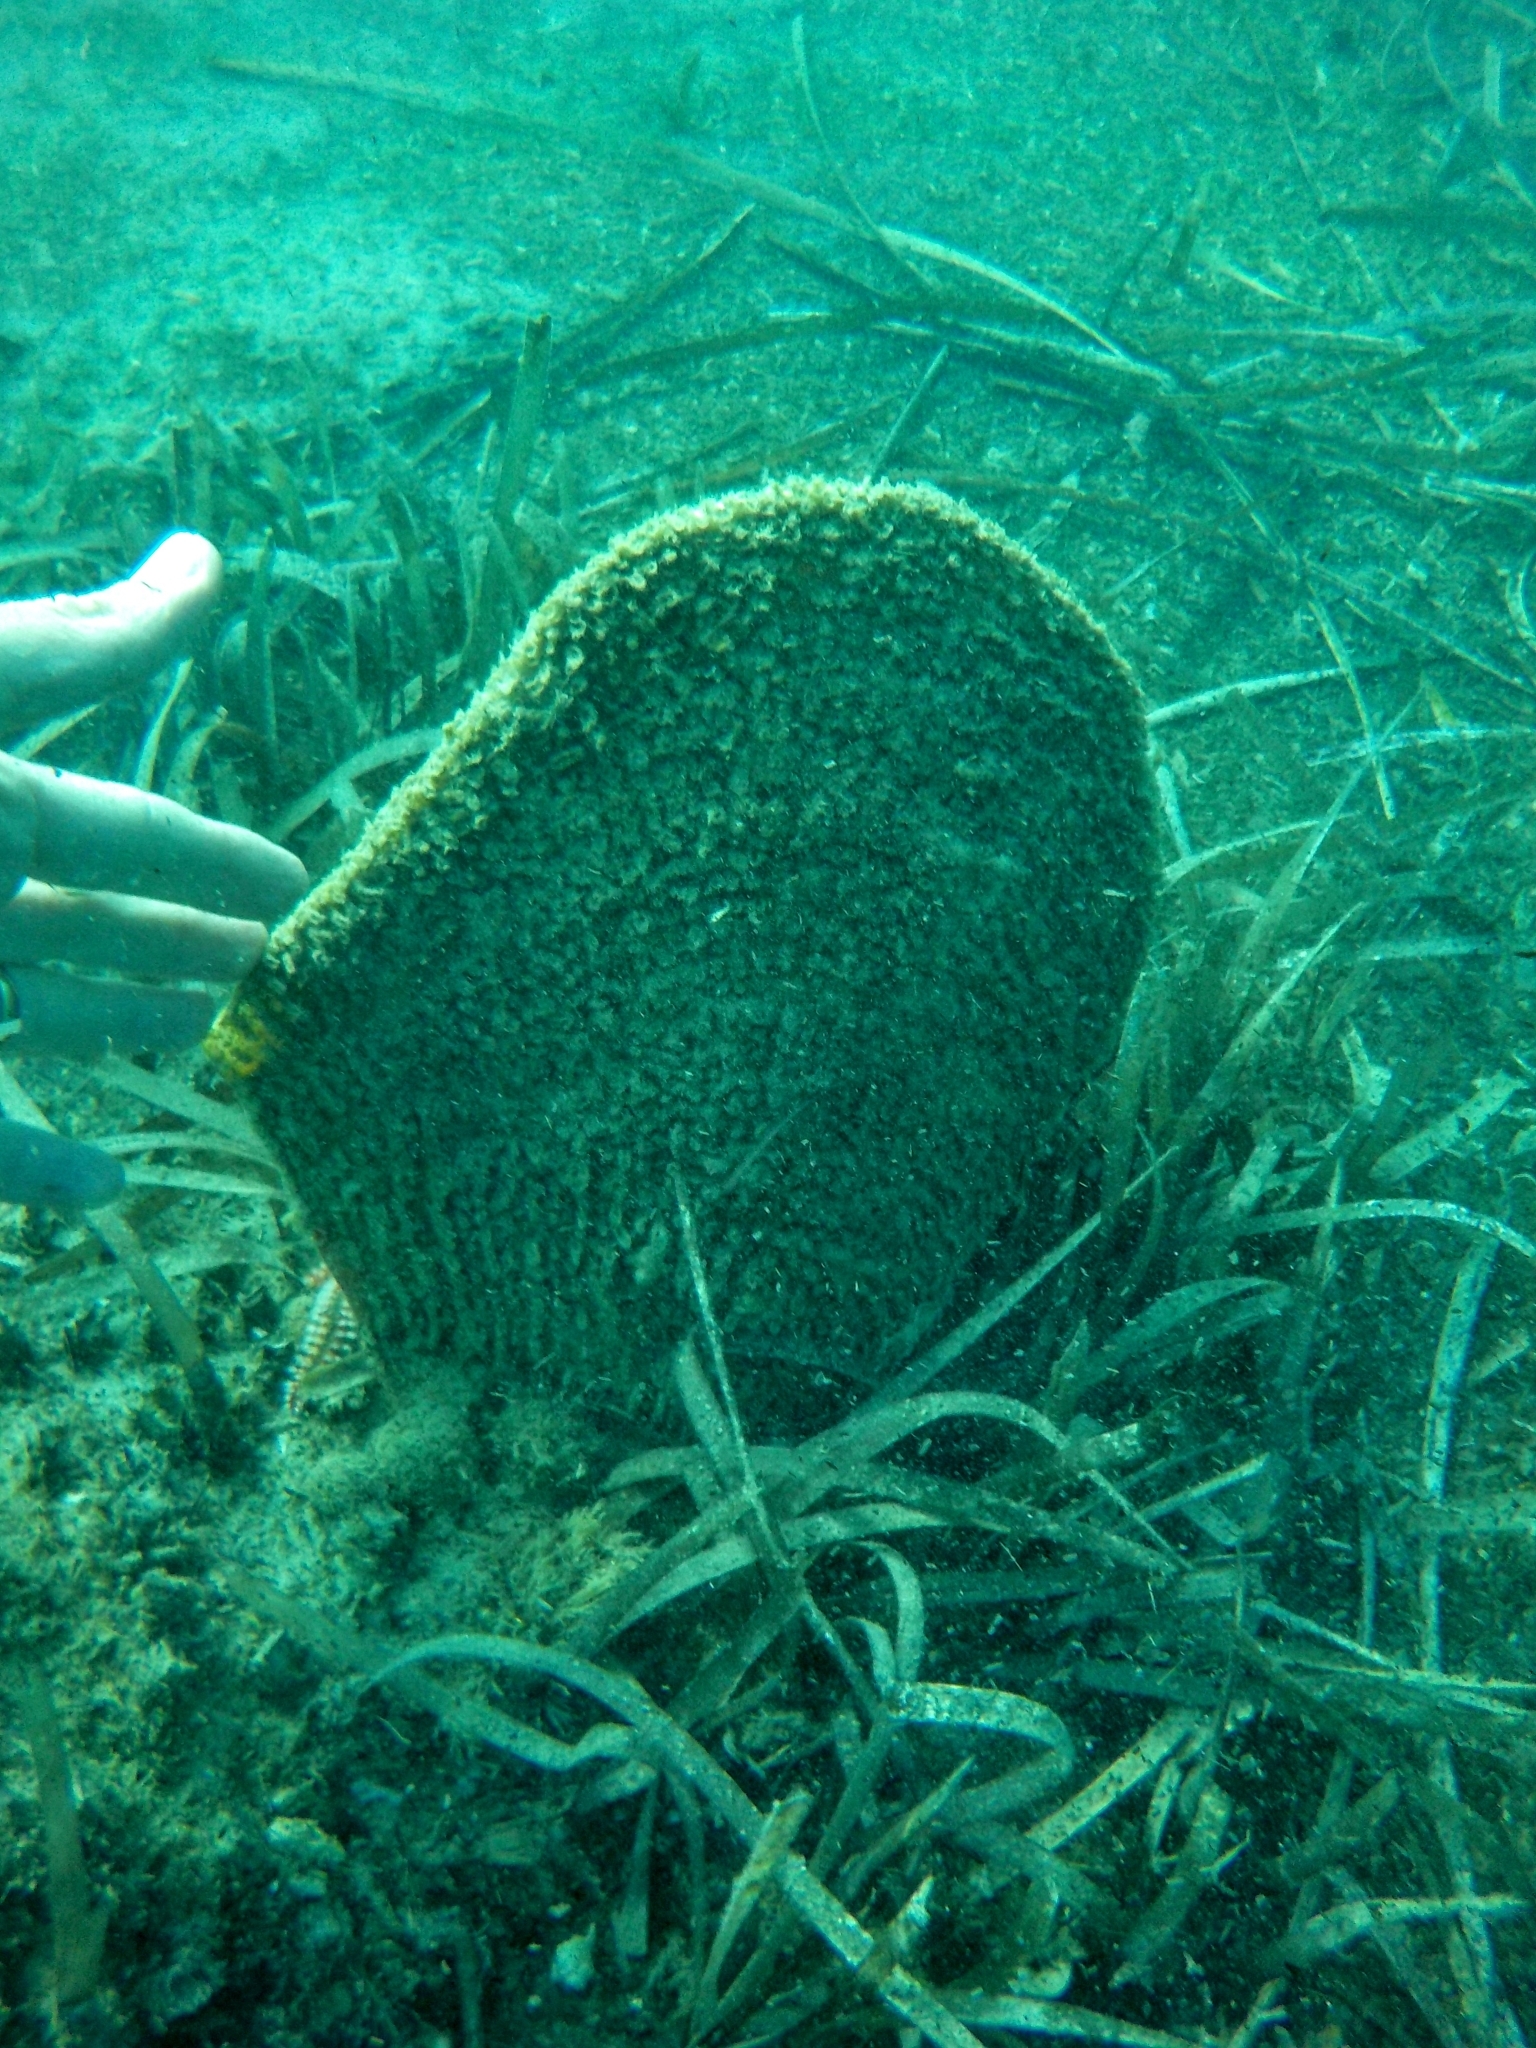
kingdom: Animalia
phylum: Mollusca
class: Bivalvia
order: Ostreida
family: Pinnidae
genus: Pinna
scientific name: Pinna nobilis
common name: Fan mussel
